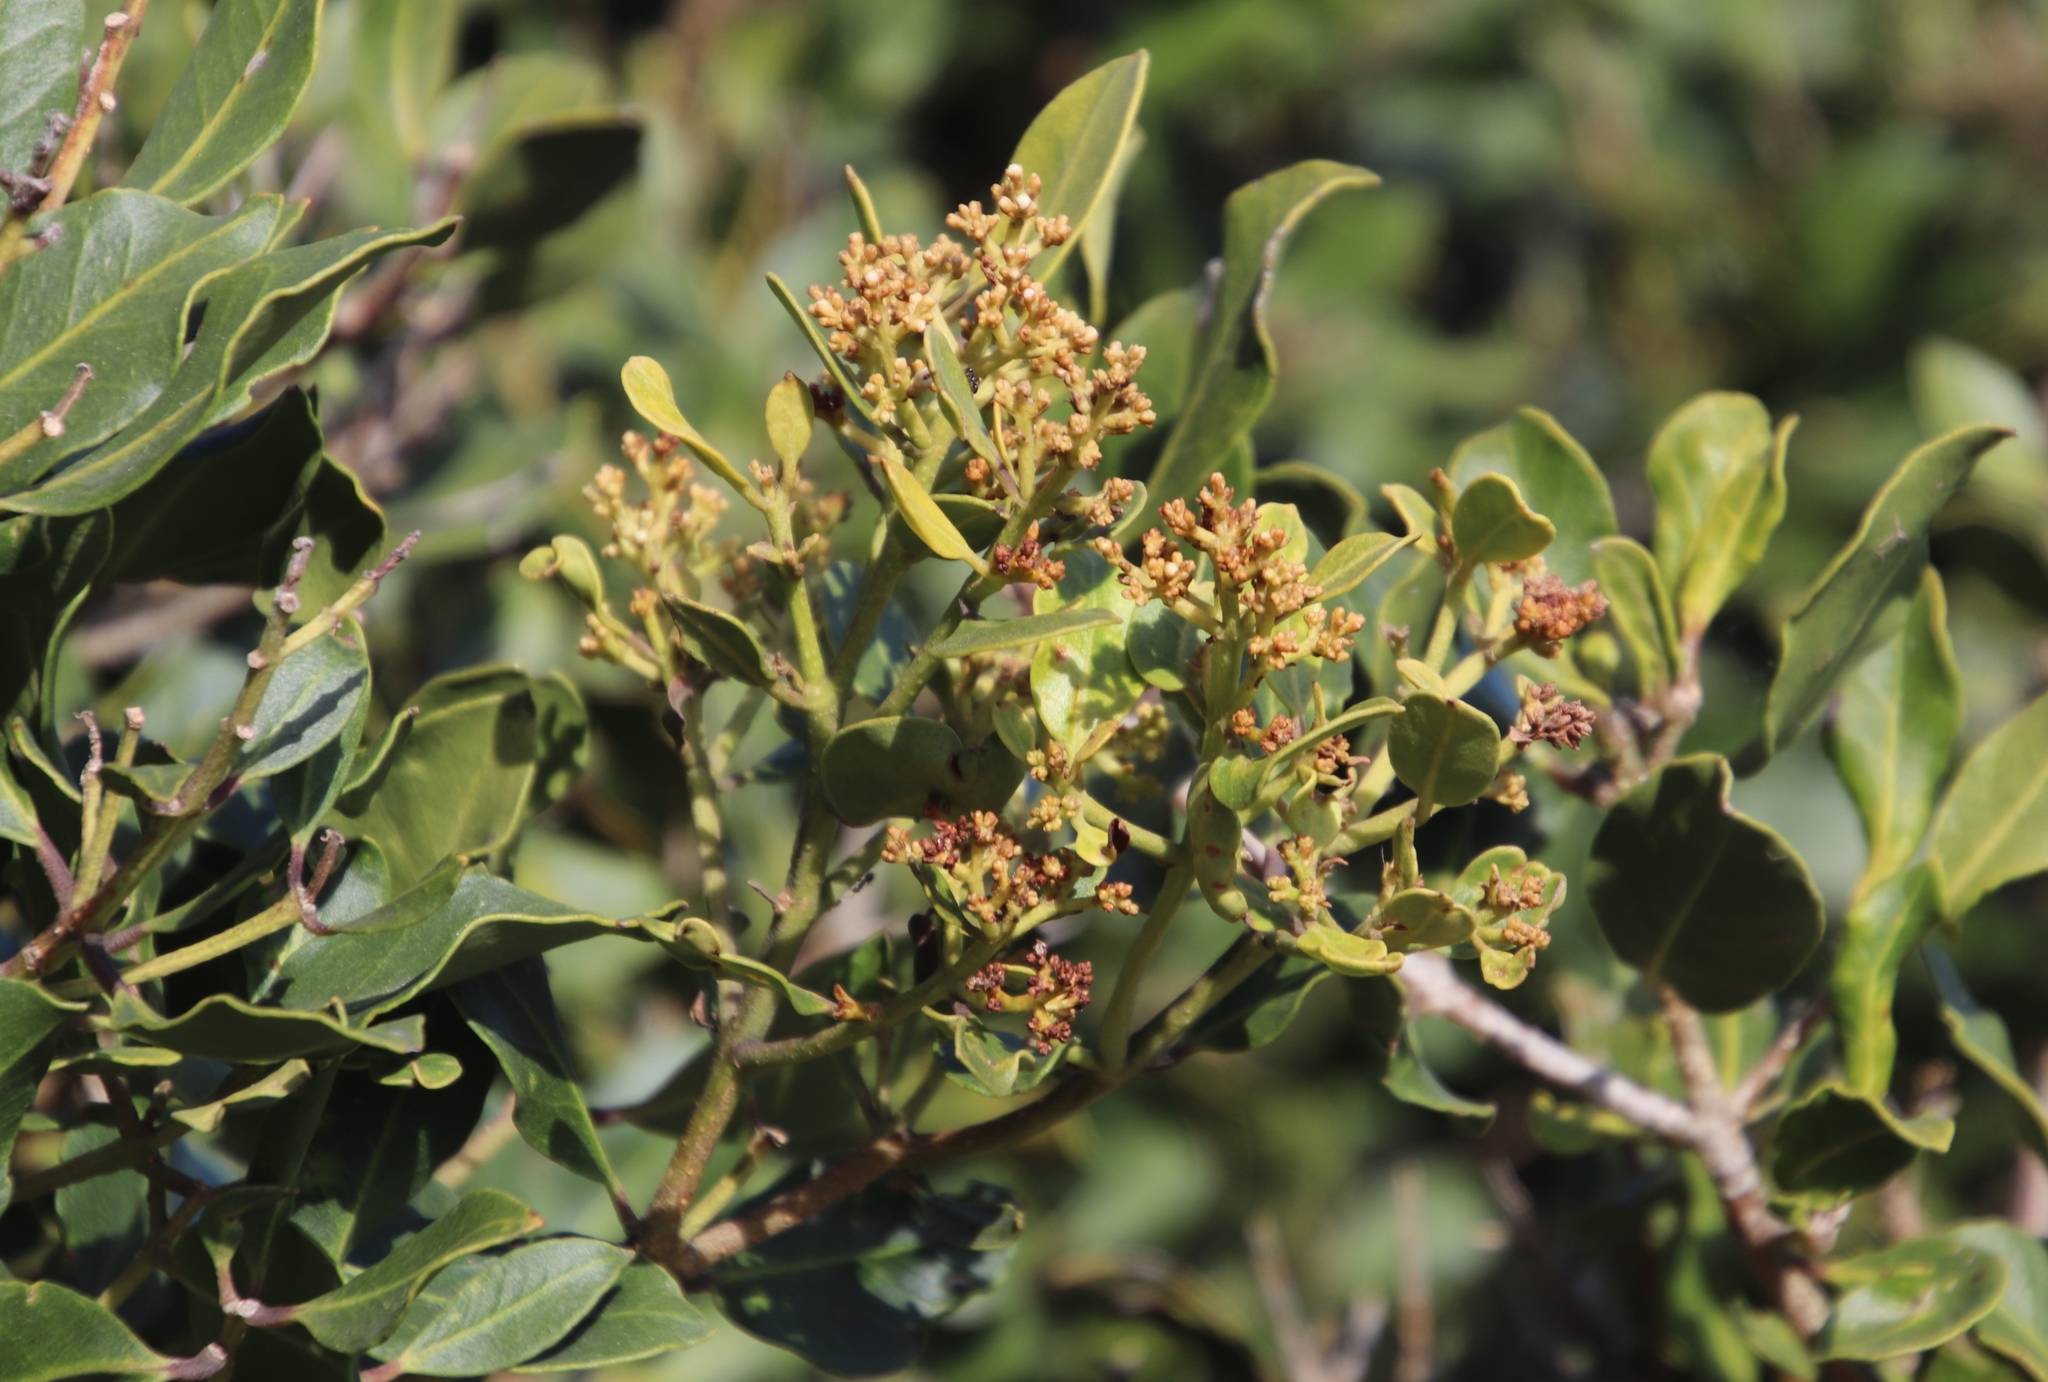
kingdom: Plantae
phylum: Tracheophyta
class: Magnoliopsida
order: Lamiales
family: Oleaceae
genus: Olea
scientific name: Olea capensis
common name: Black ironwood
